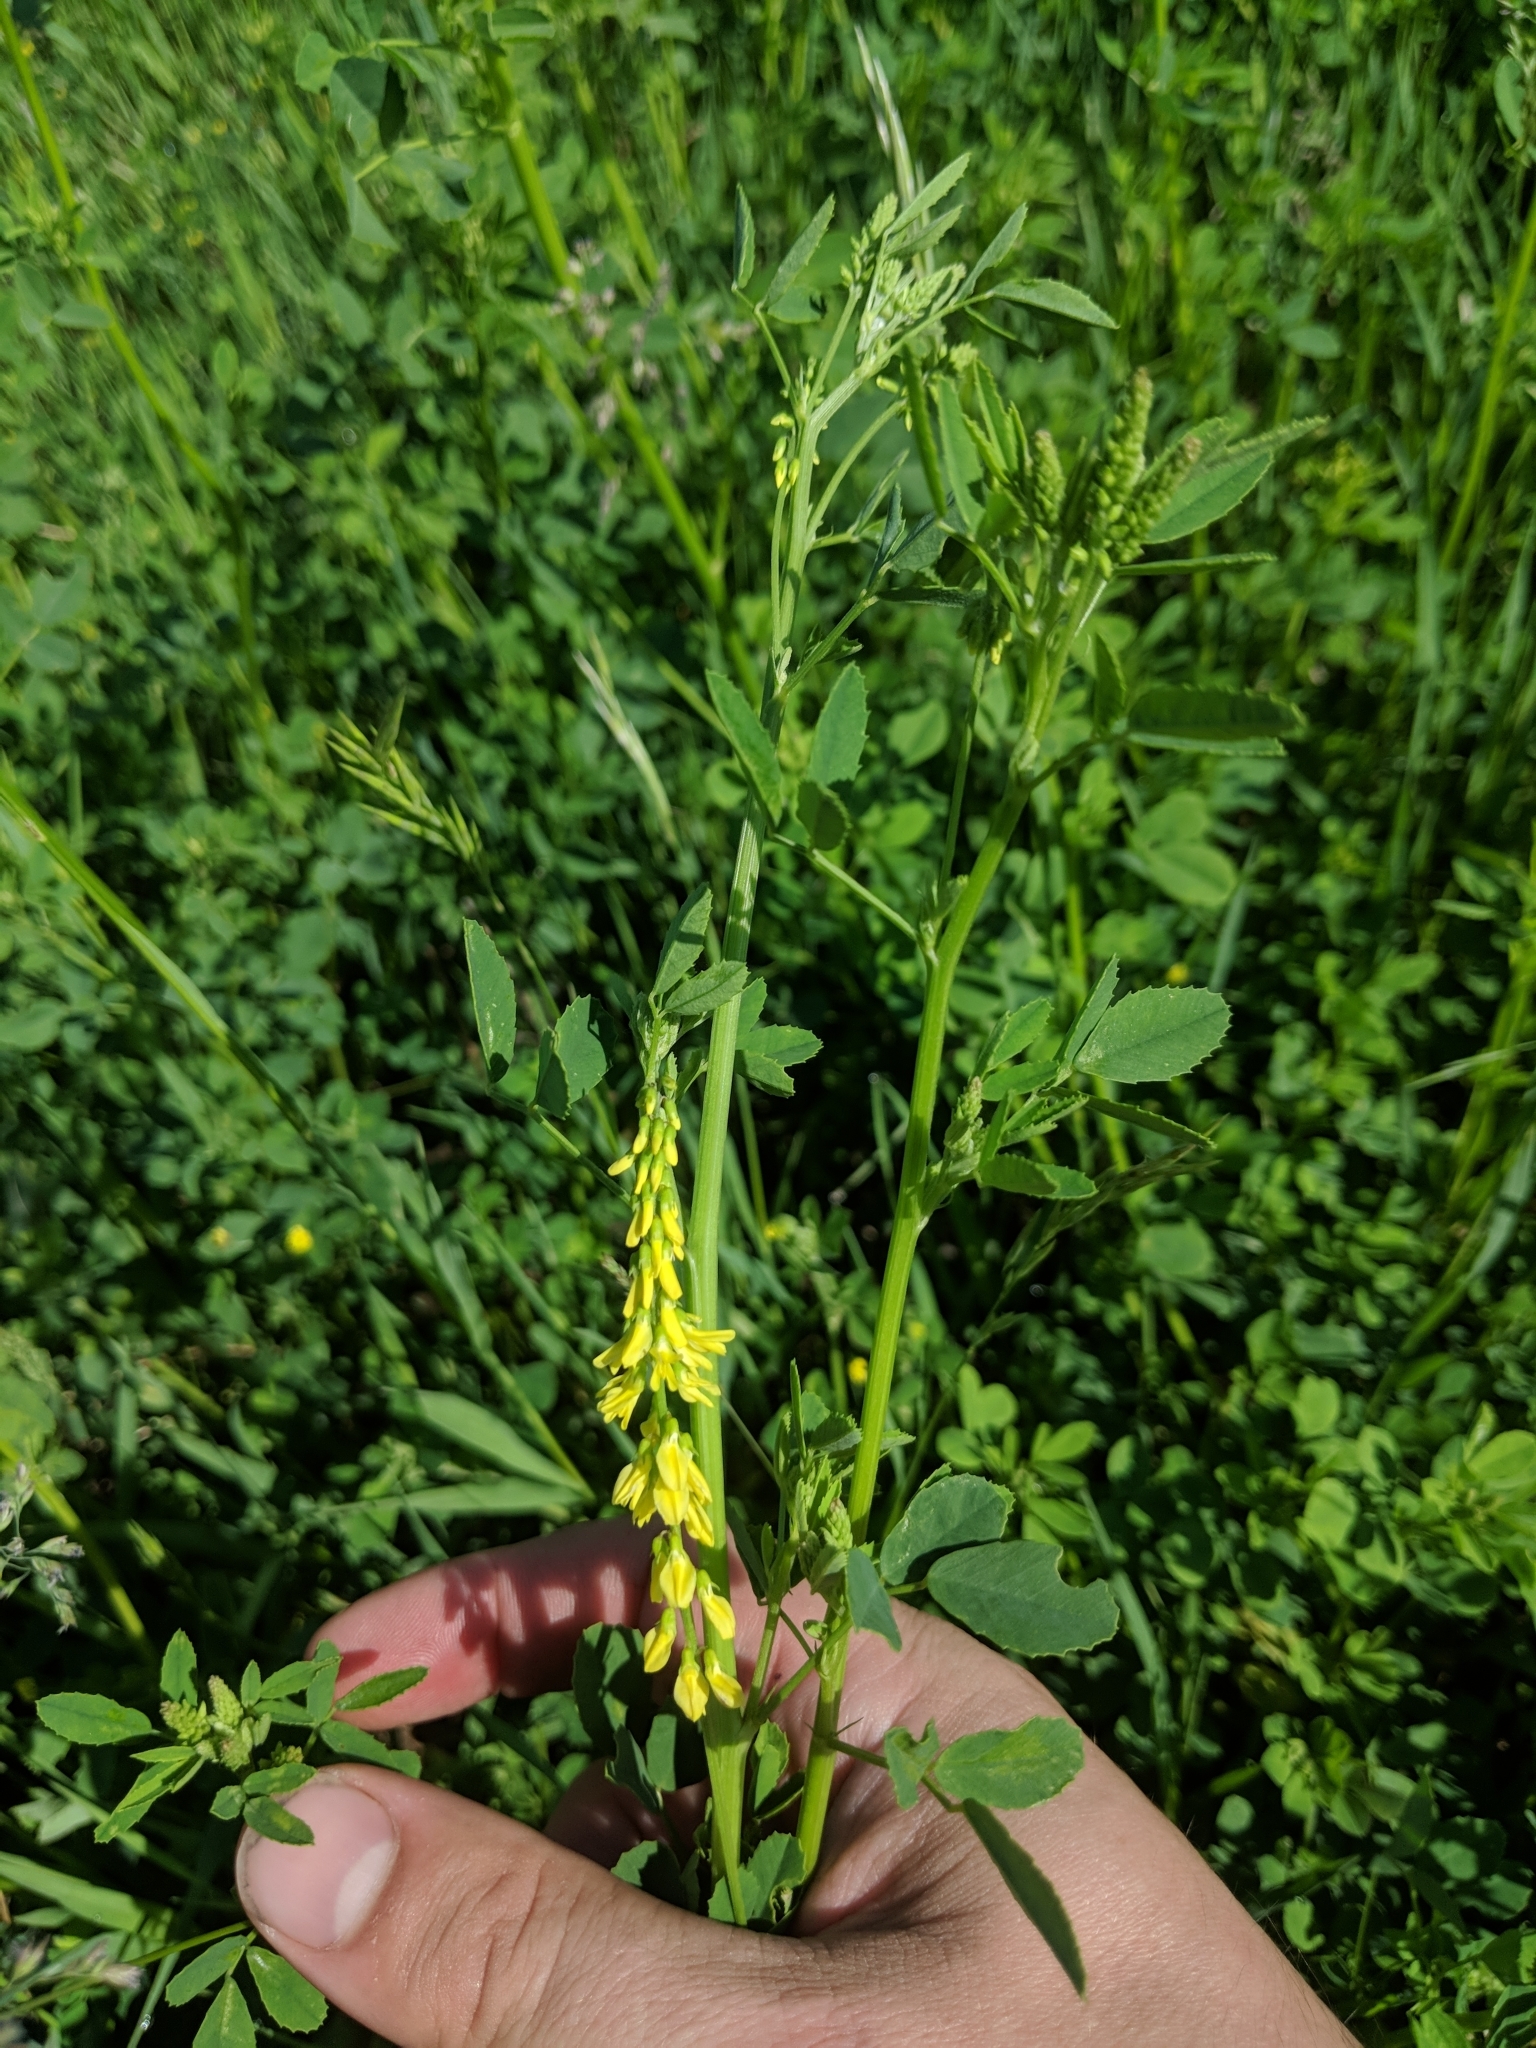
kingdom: Plantae
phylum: Tracheophyta
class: Magnoliopsida
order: Fabales
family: Fabaceae
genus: Melilotus
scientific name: Melilotus officinalis
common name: Sweetclover
